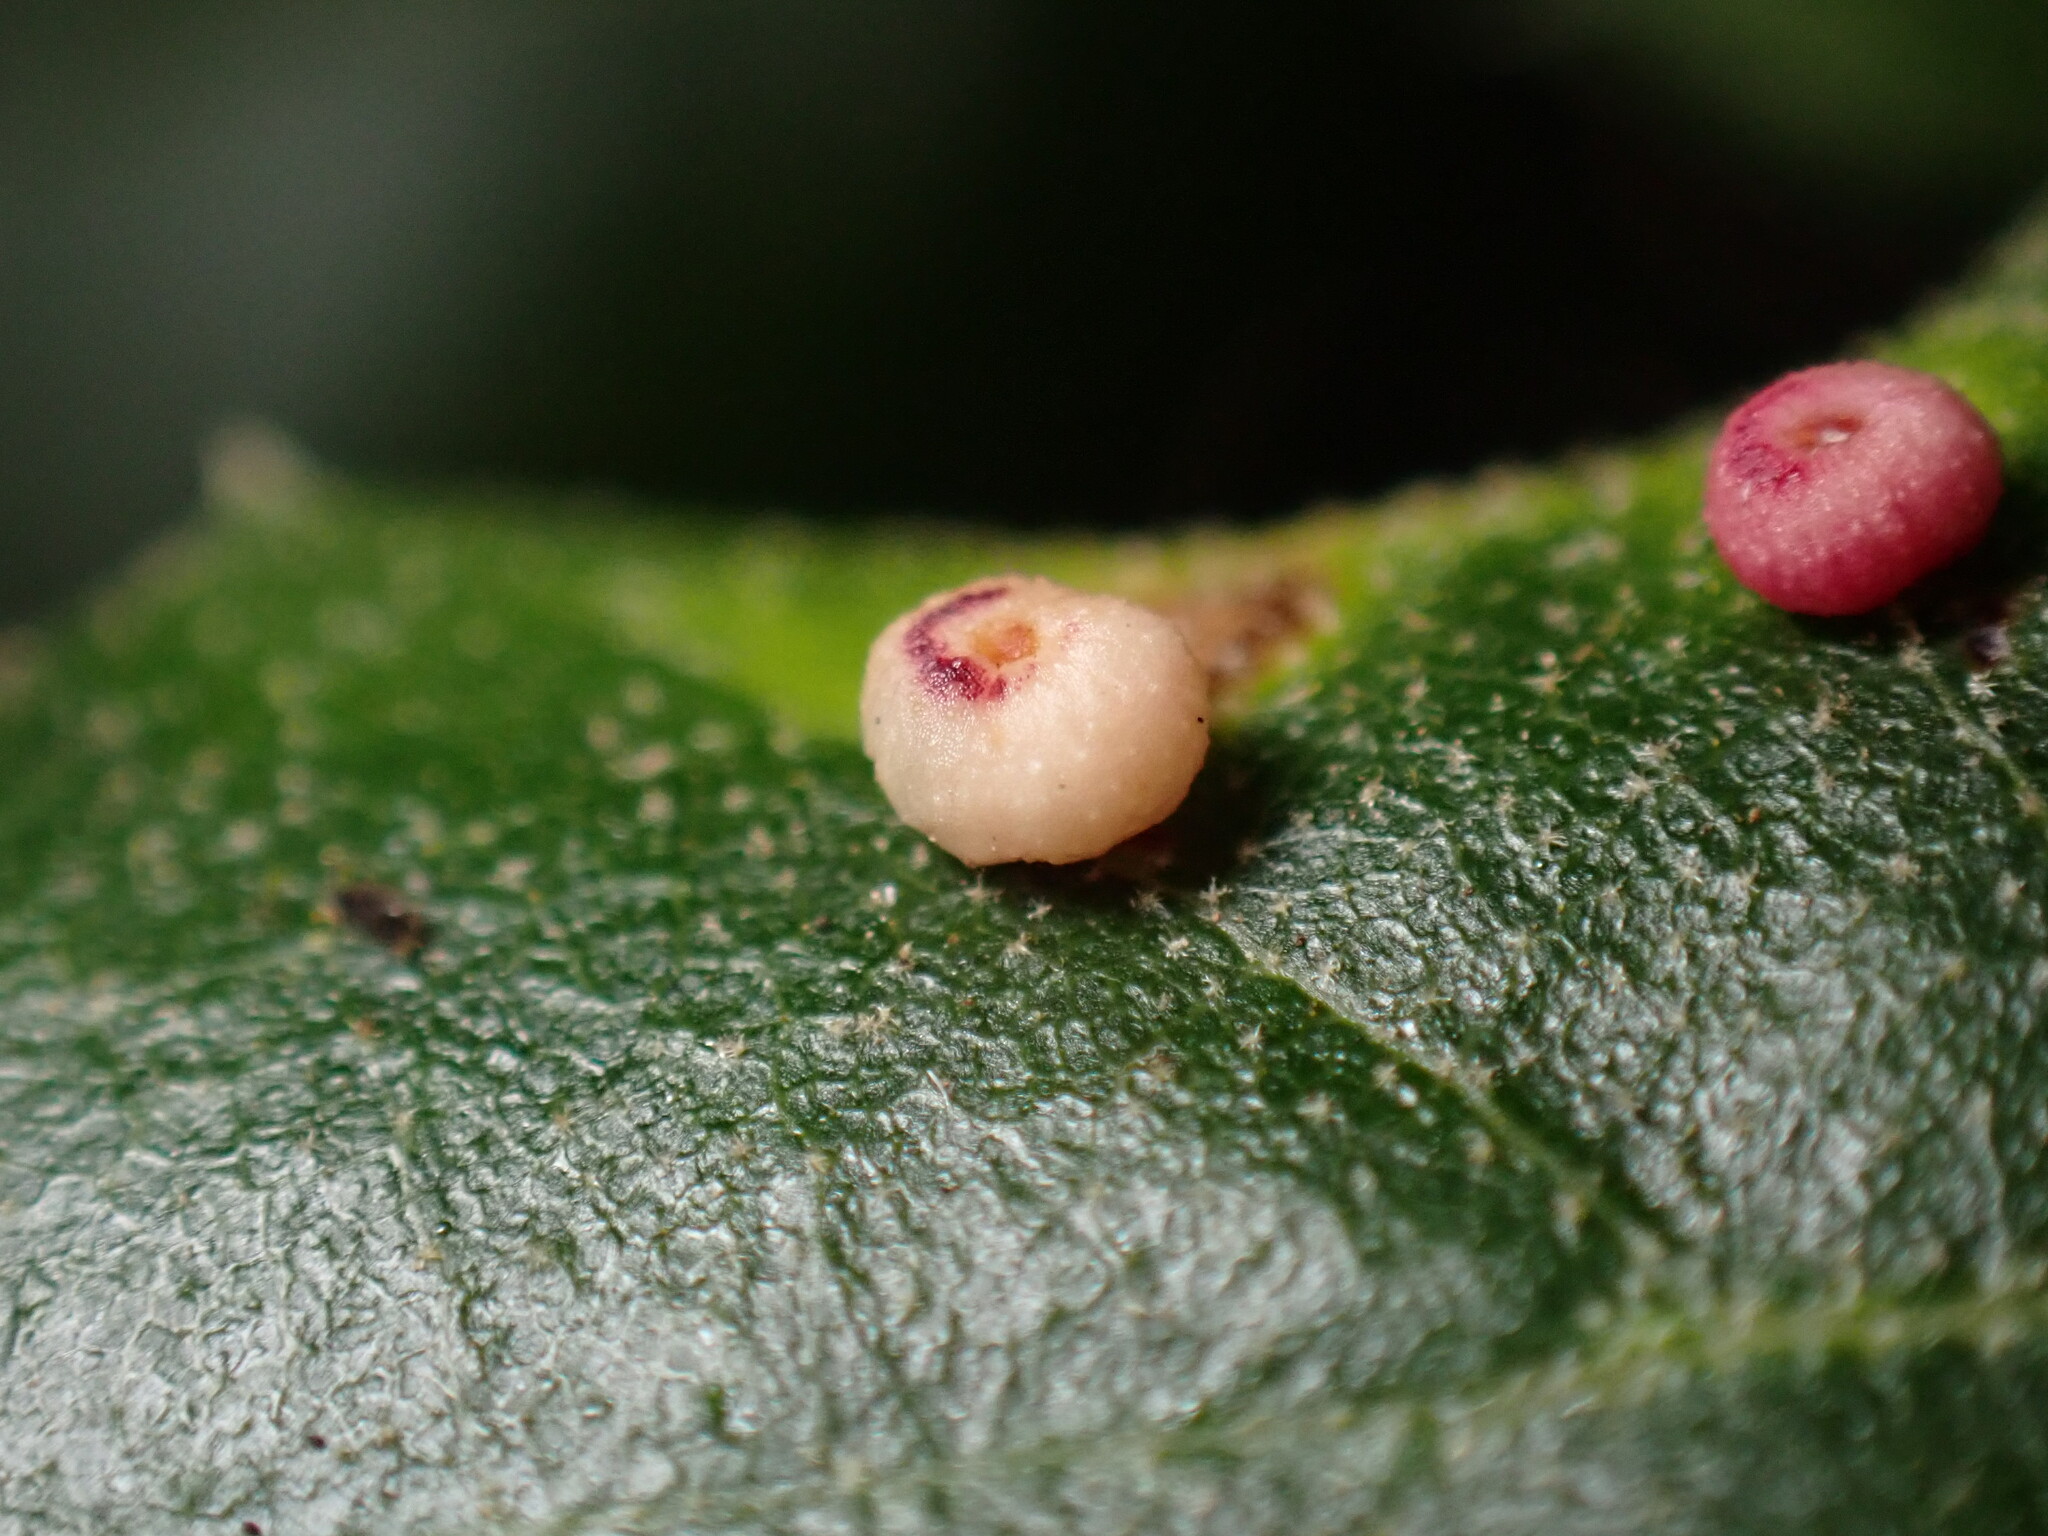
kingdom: Animalia
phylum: Arthropoda
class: Insecta
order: Hymenoptera
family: Cynipidae
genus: Dryocosmus
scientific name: Dryocosmus
